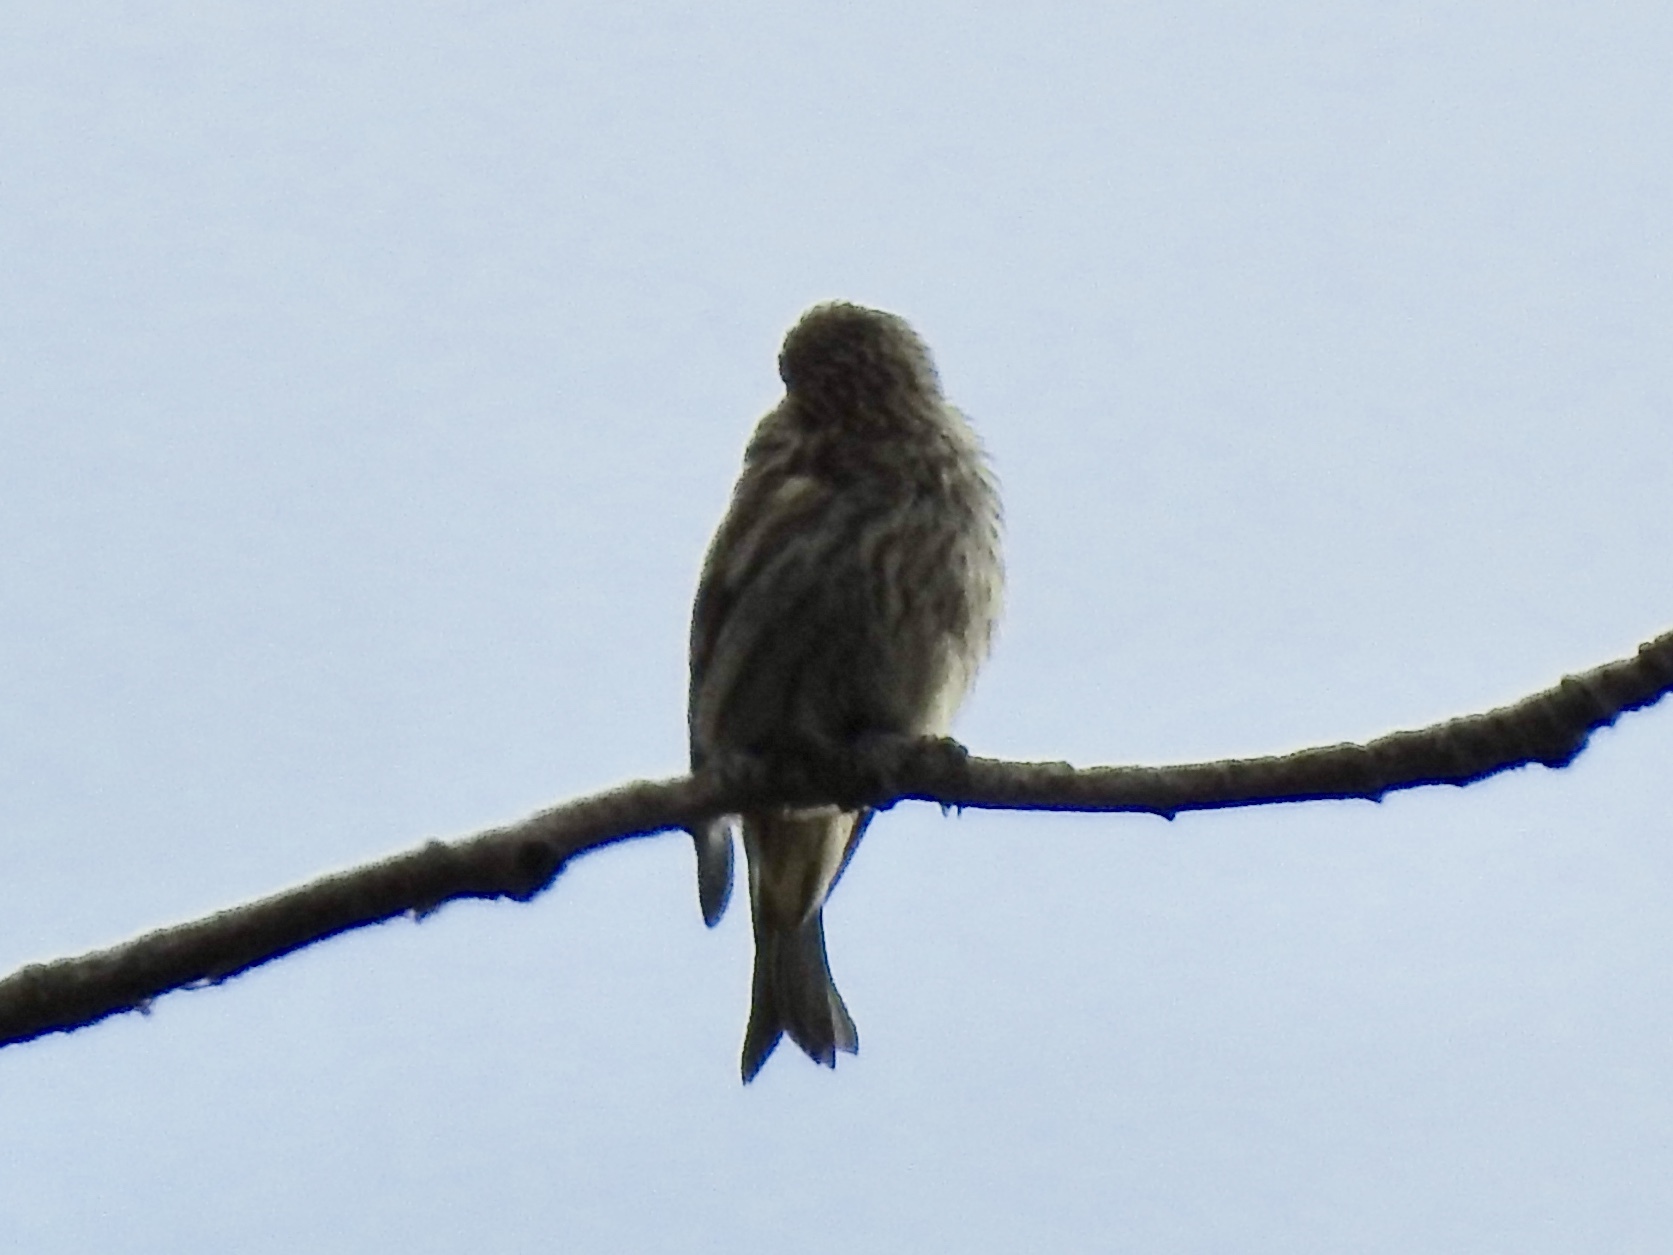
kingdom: Animalia
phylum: Chordata
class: Aves
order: Passeriformes
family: Fringillidae
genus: Spinus
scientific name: Spinus pinus
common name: Pine siskin
